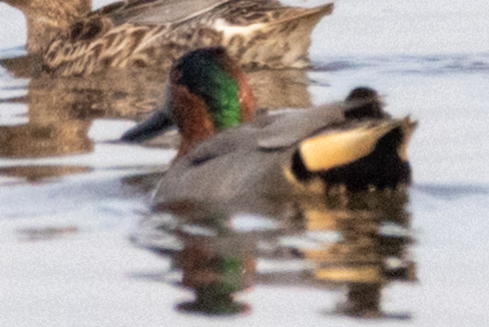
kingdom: Animalia
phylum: Chordata
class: Aves
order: Anseriformes
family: Anatidae
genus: Anas
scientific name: Anas crecca
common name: Eurasian teal
